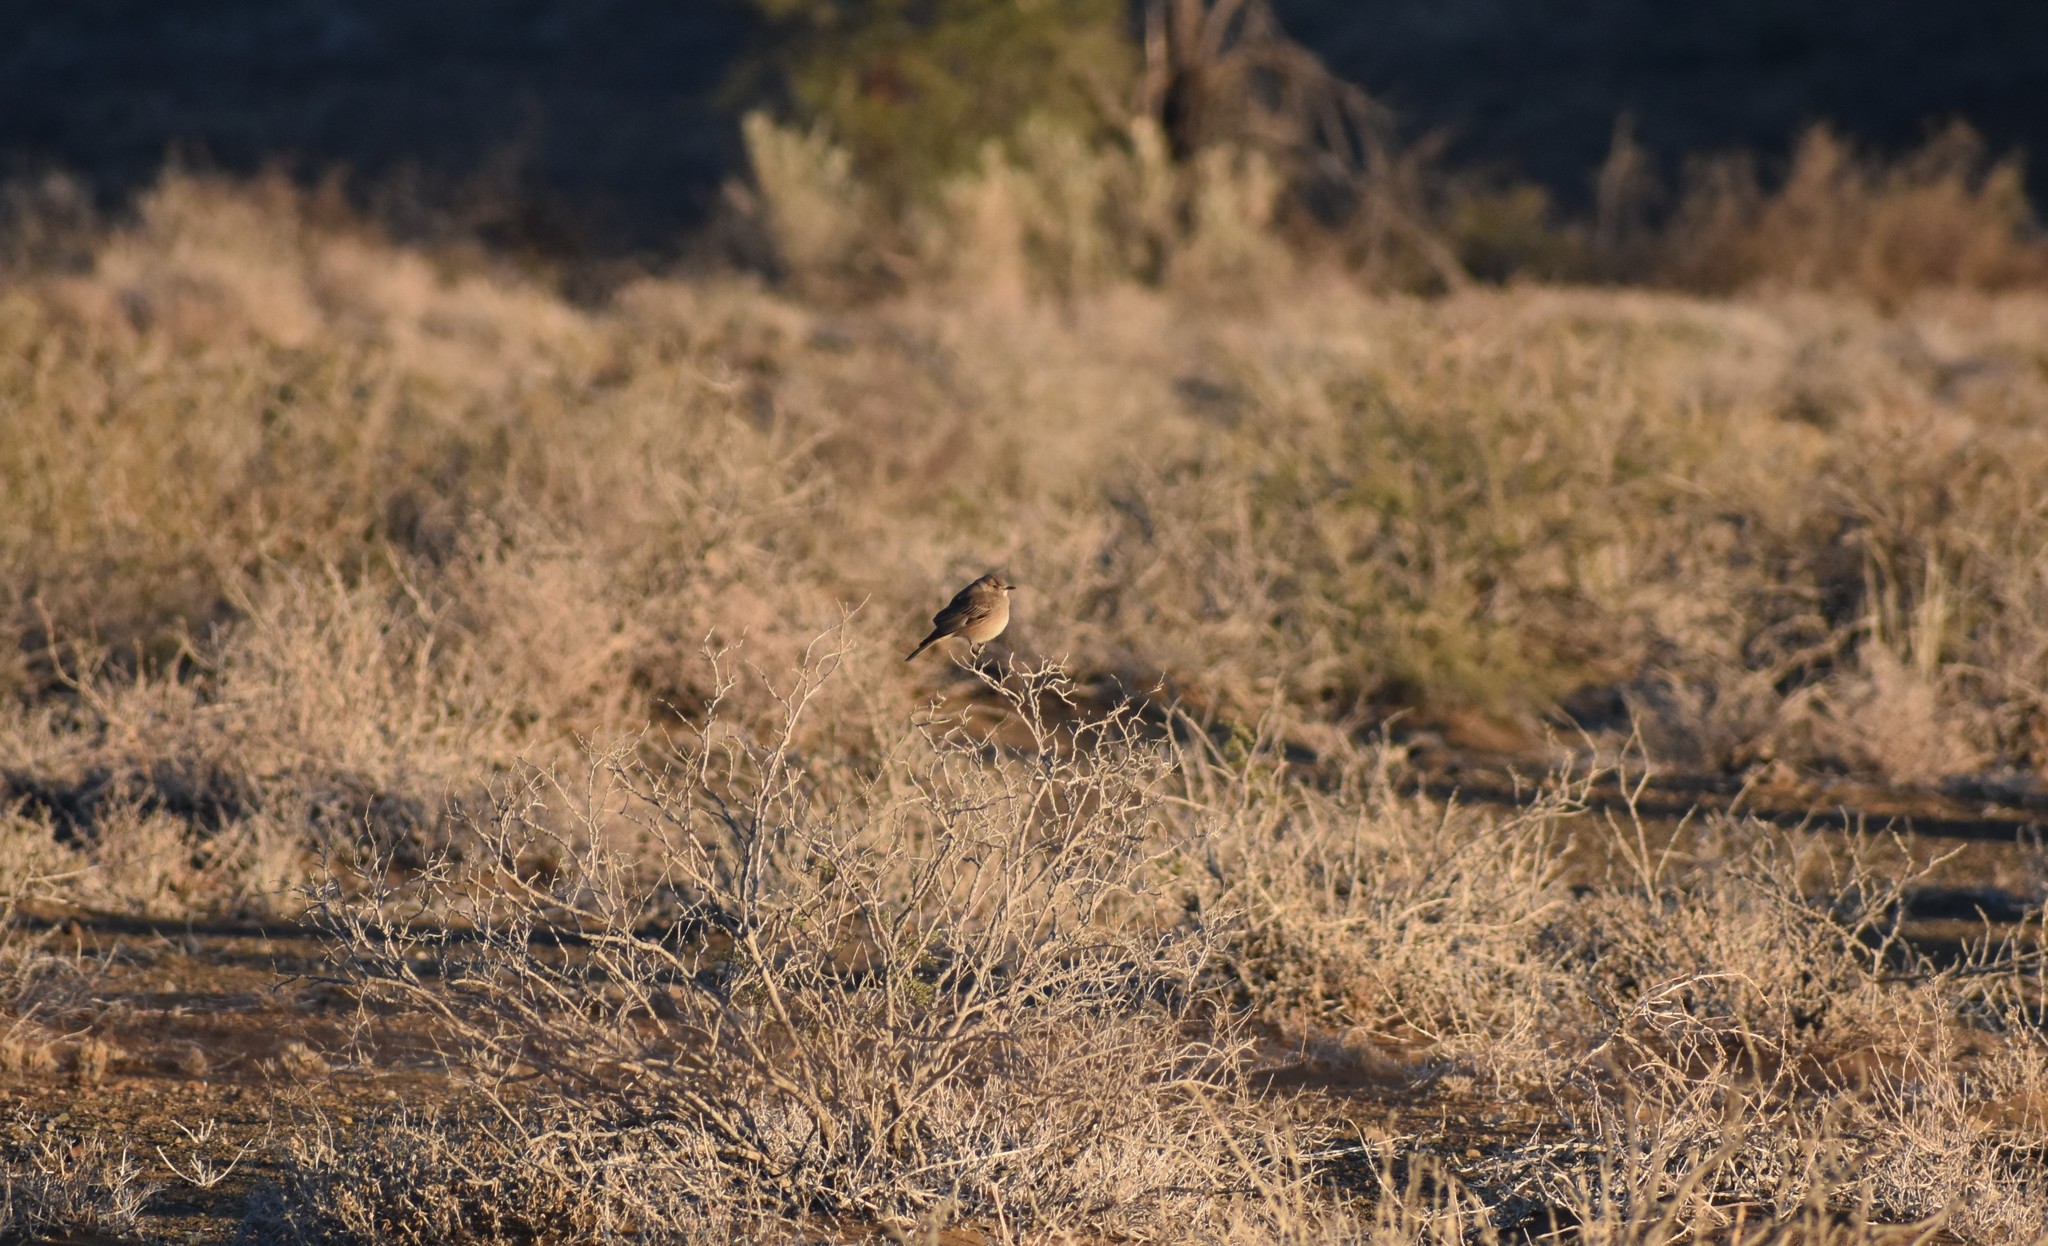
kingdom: Animalia
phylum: Chordata
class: Aves
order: Passeriformes
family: Muscicapidae
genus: Bradornis
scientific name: Bradornis infuscatus
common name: Chat flycatcher
